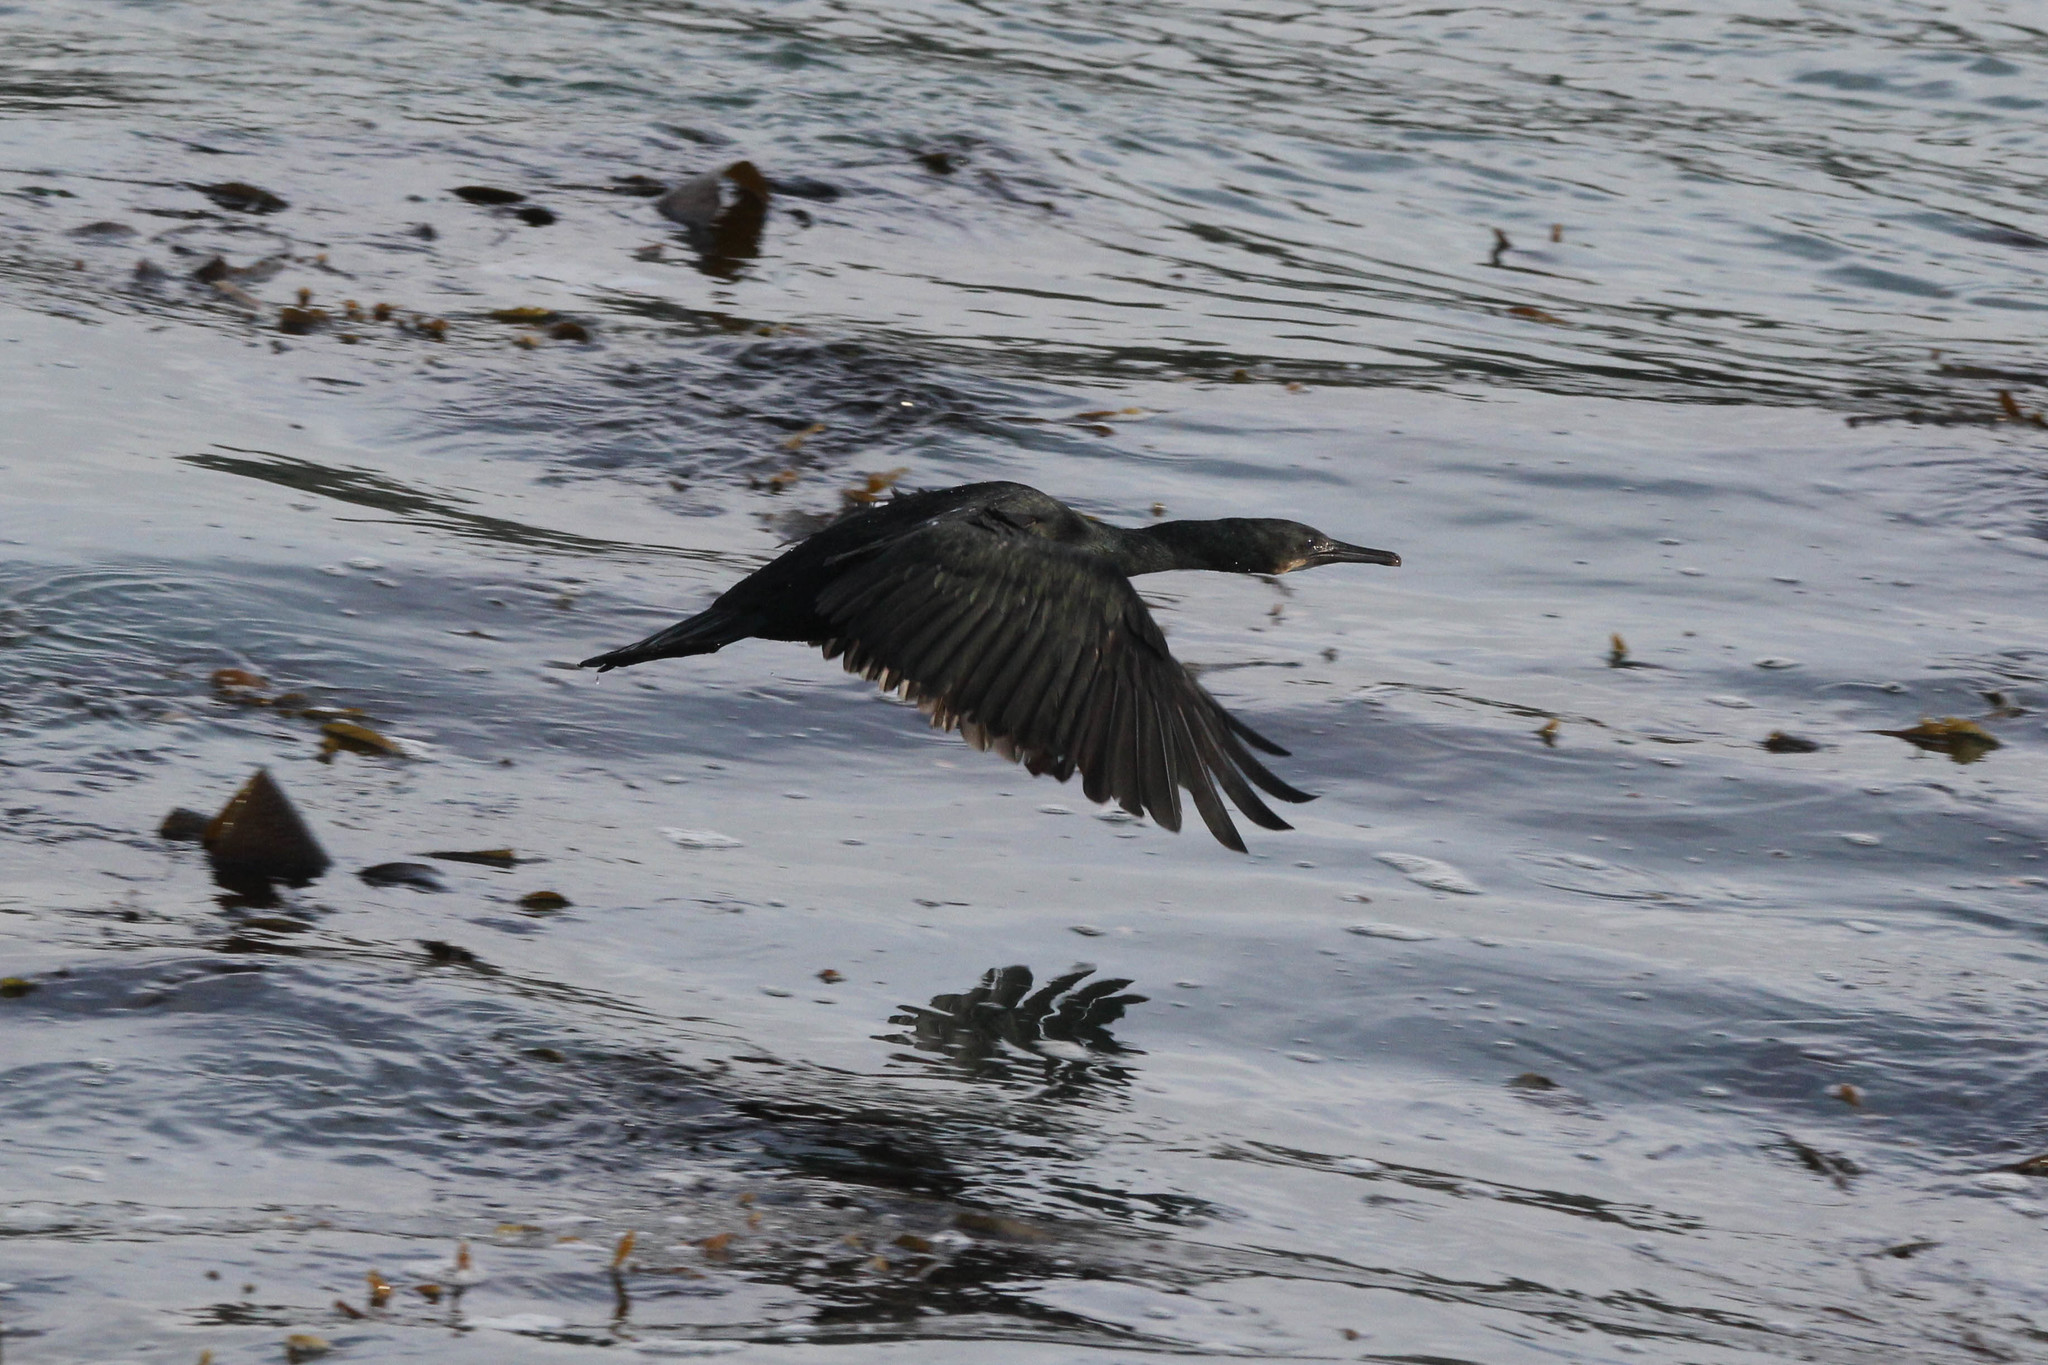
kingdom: Animalia
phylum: Chordata
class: Aves
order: Suliformes
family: Phalacrocoracidae
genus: Urile
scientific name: Urile penicillatus
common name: Brandt's cormorant
